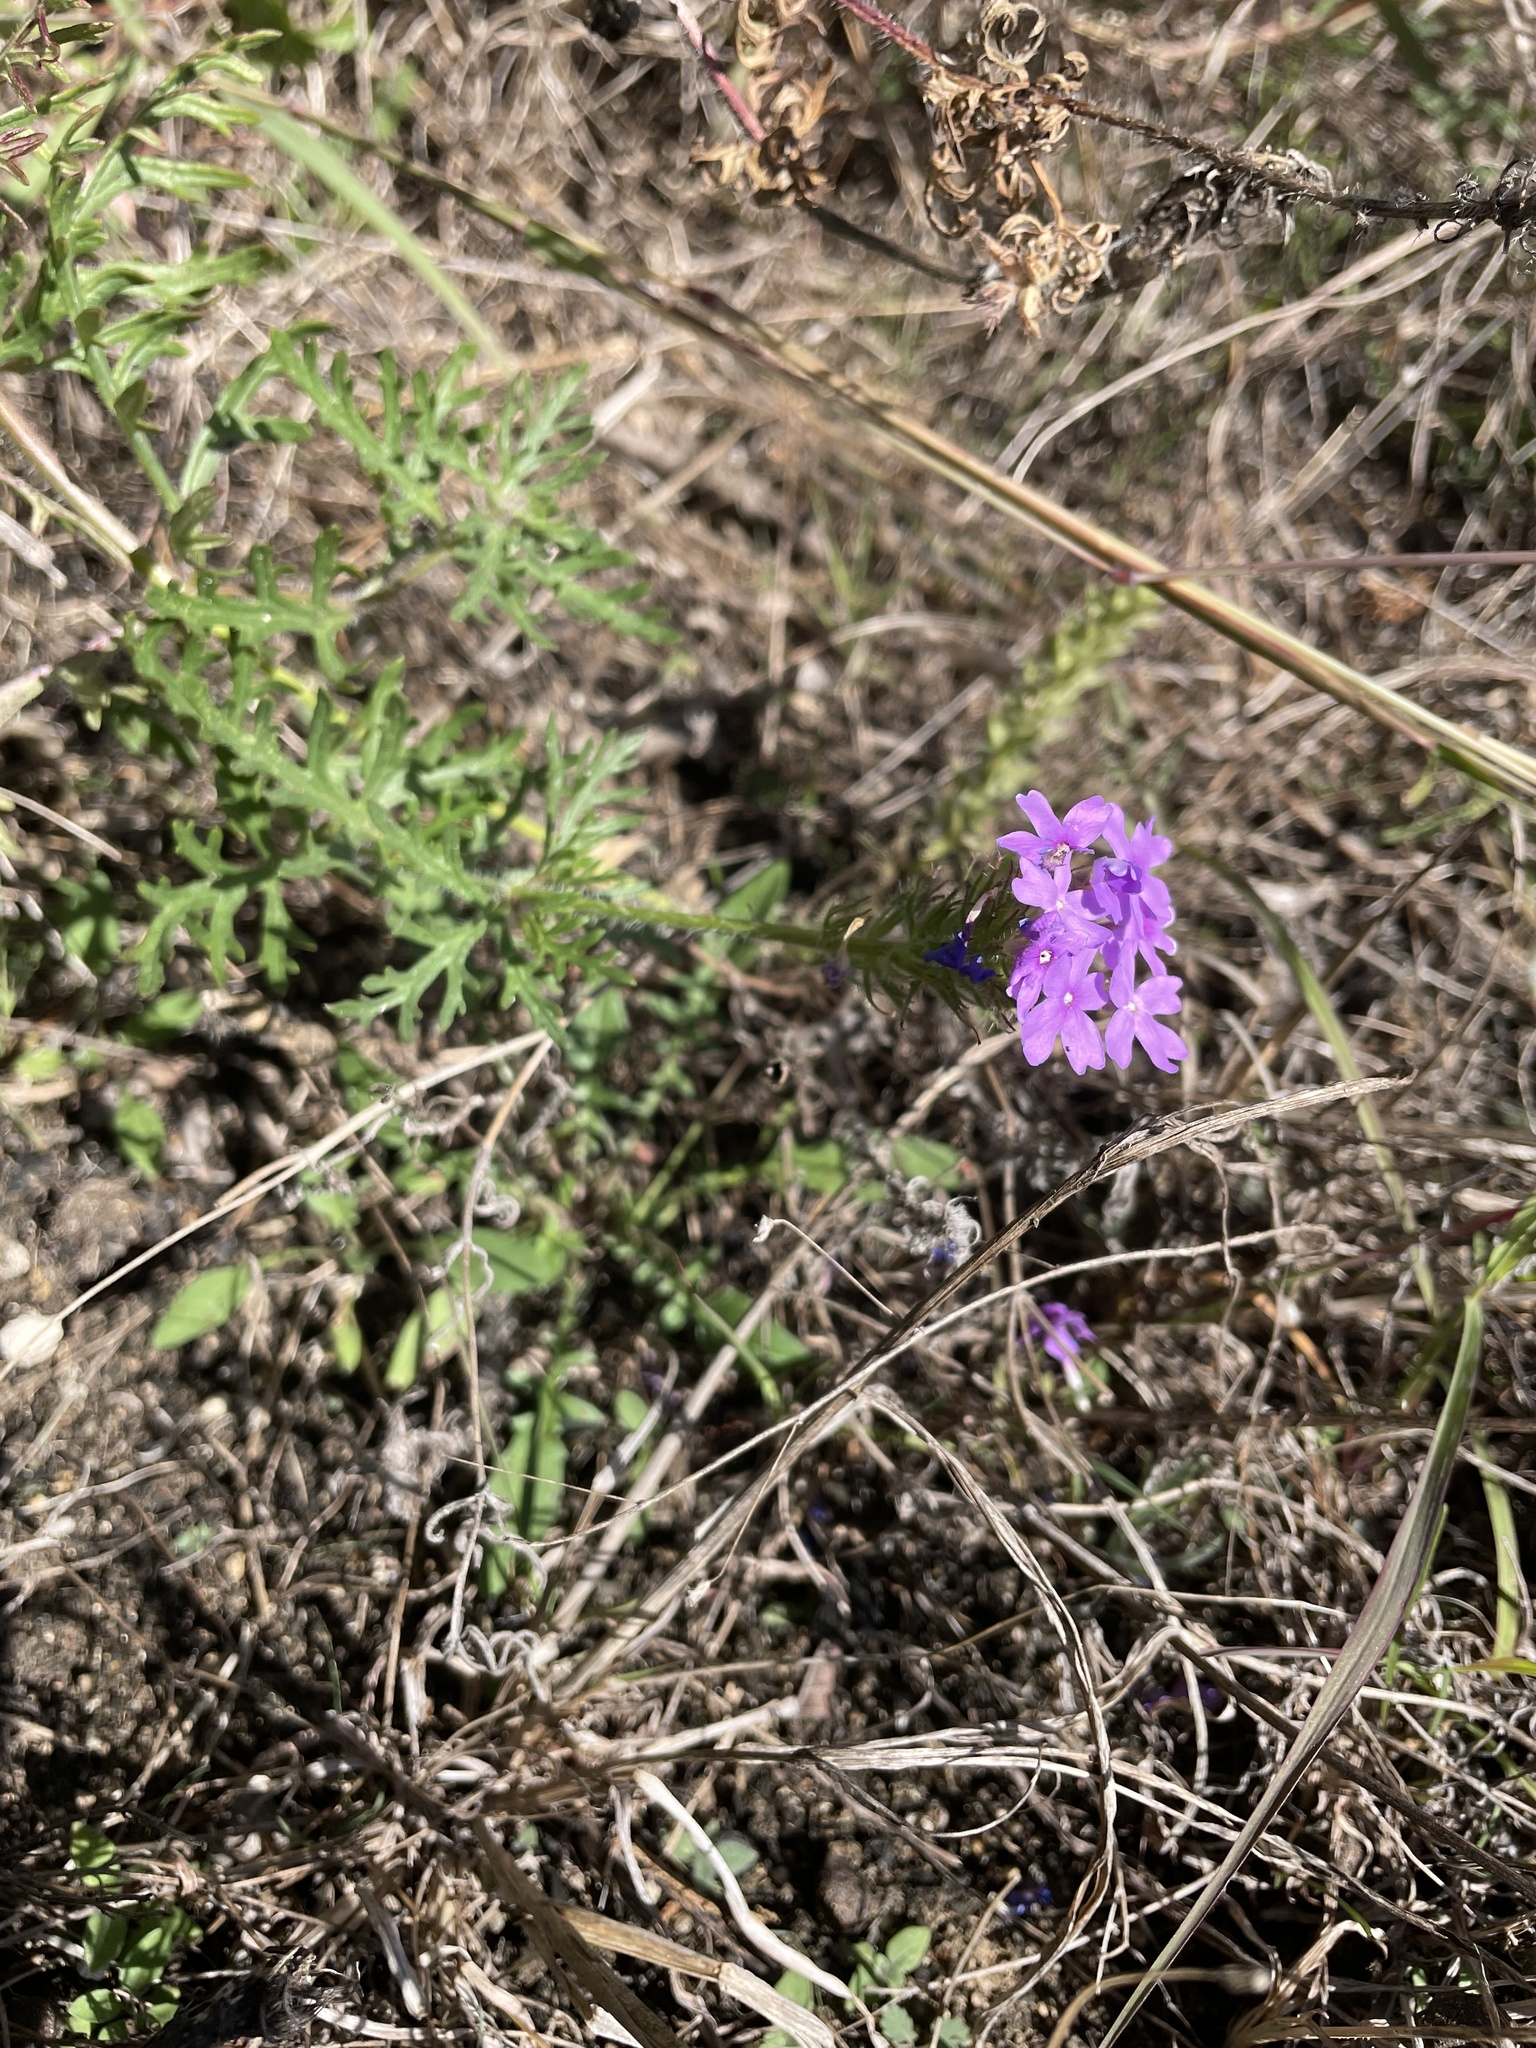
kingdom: Plantae
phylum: Tracheophyta
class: Magnoliopsida
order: Lamiales
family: Verbenaceae
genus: Verbena
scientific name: Verbena bipinnatifida
